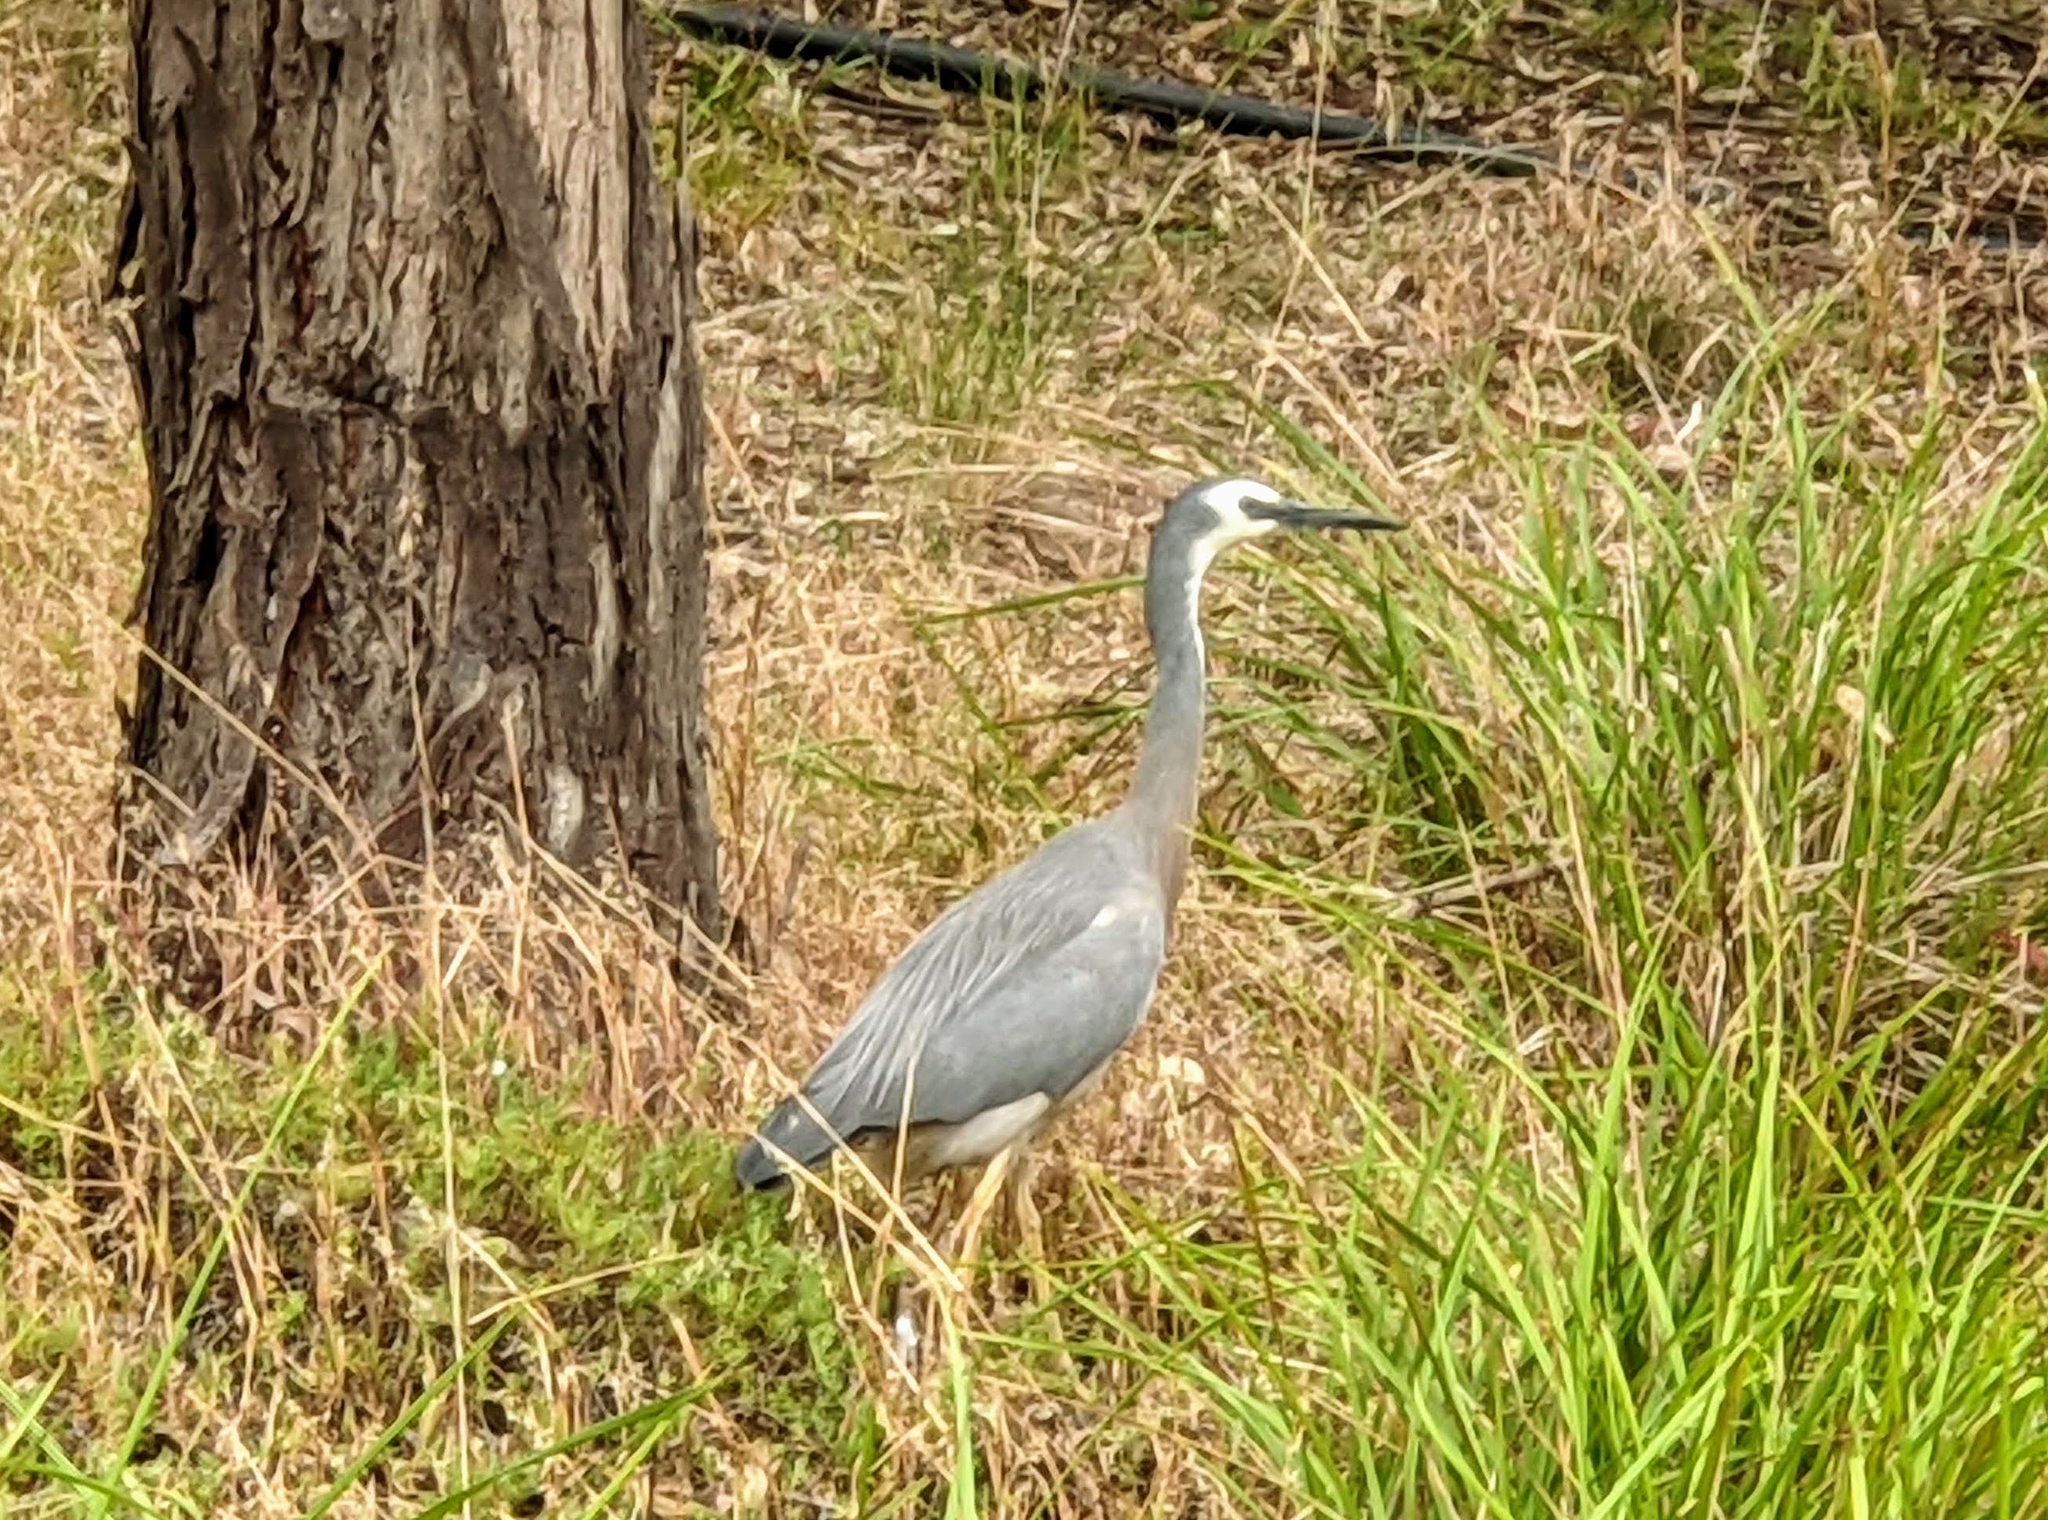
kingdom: Animalia
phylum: Chordata
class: Aves
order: Pelecaniformes
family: Ardeidae
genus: Egretta
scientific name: Egretta novaehollandiae
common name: White-faced heron
